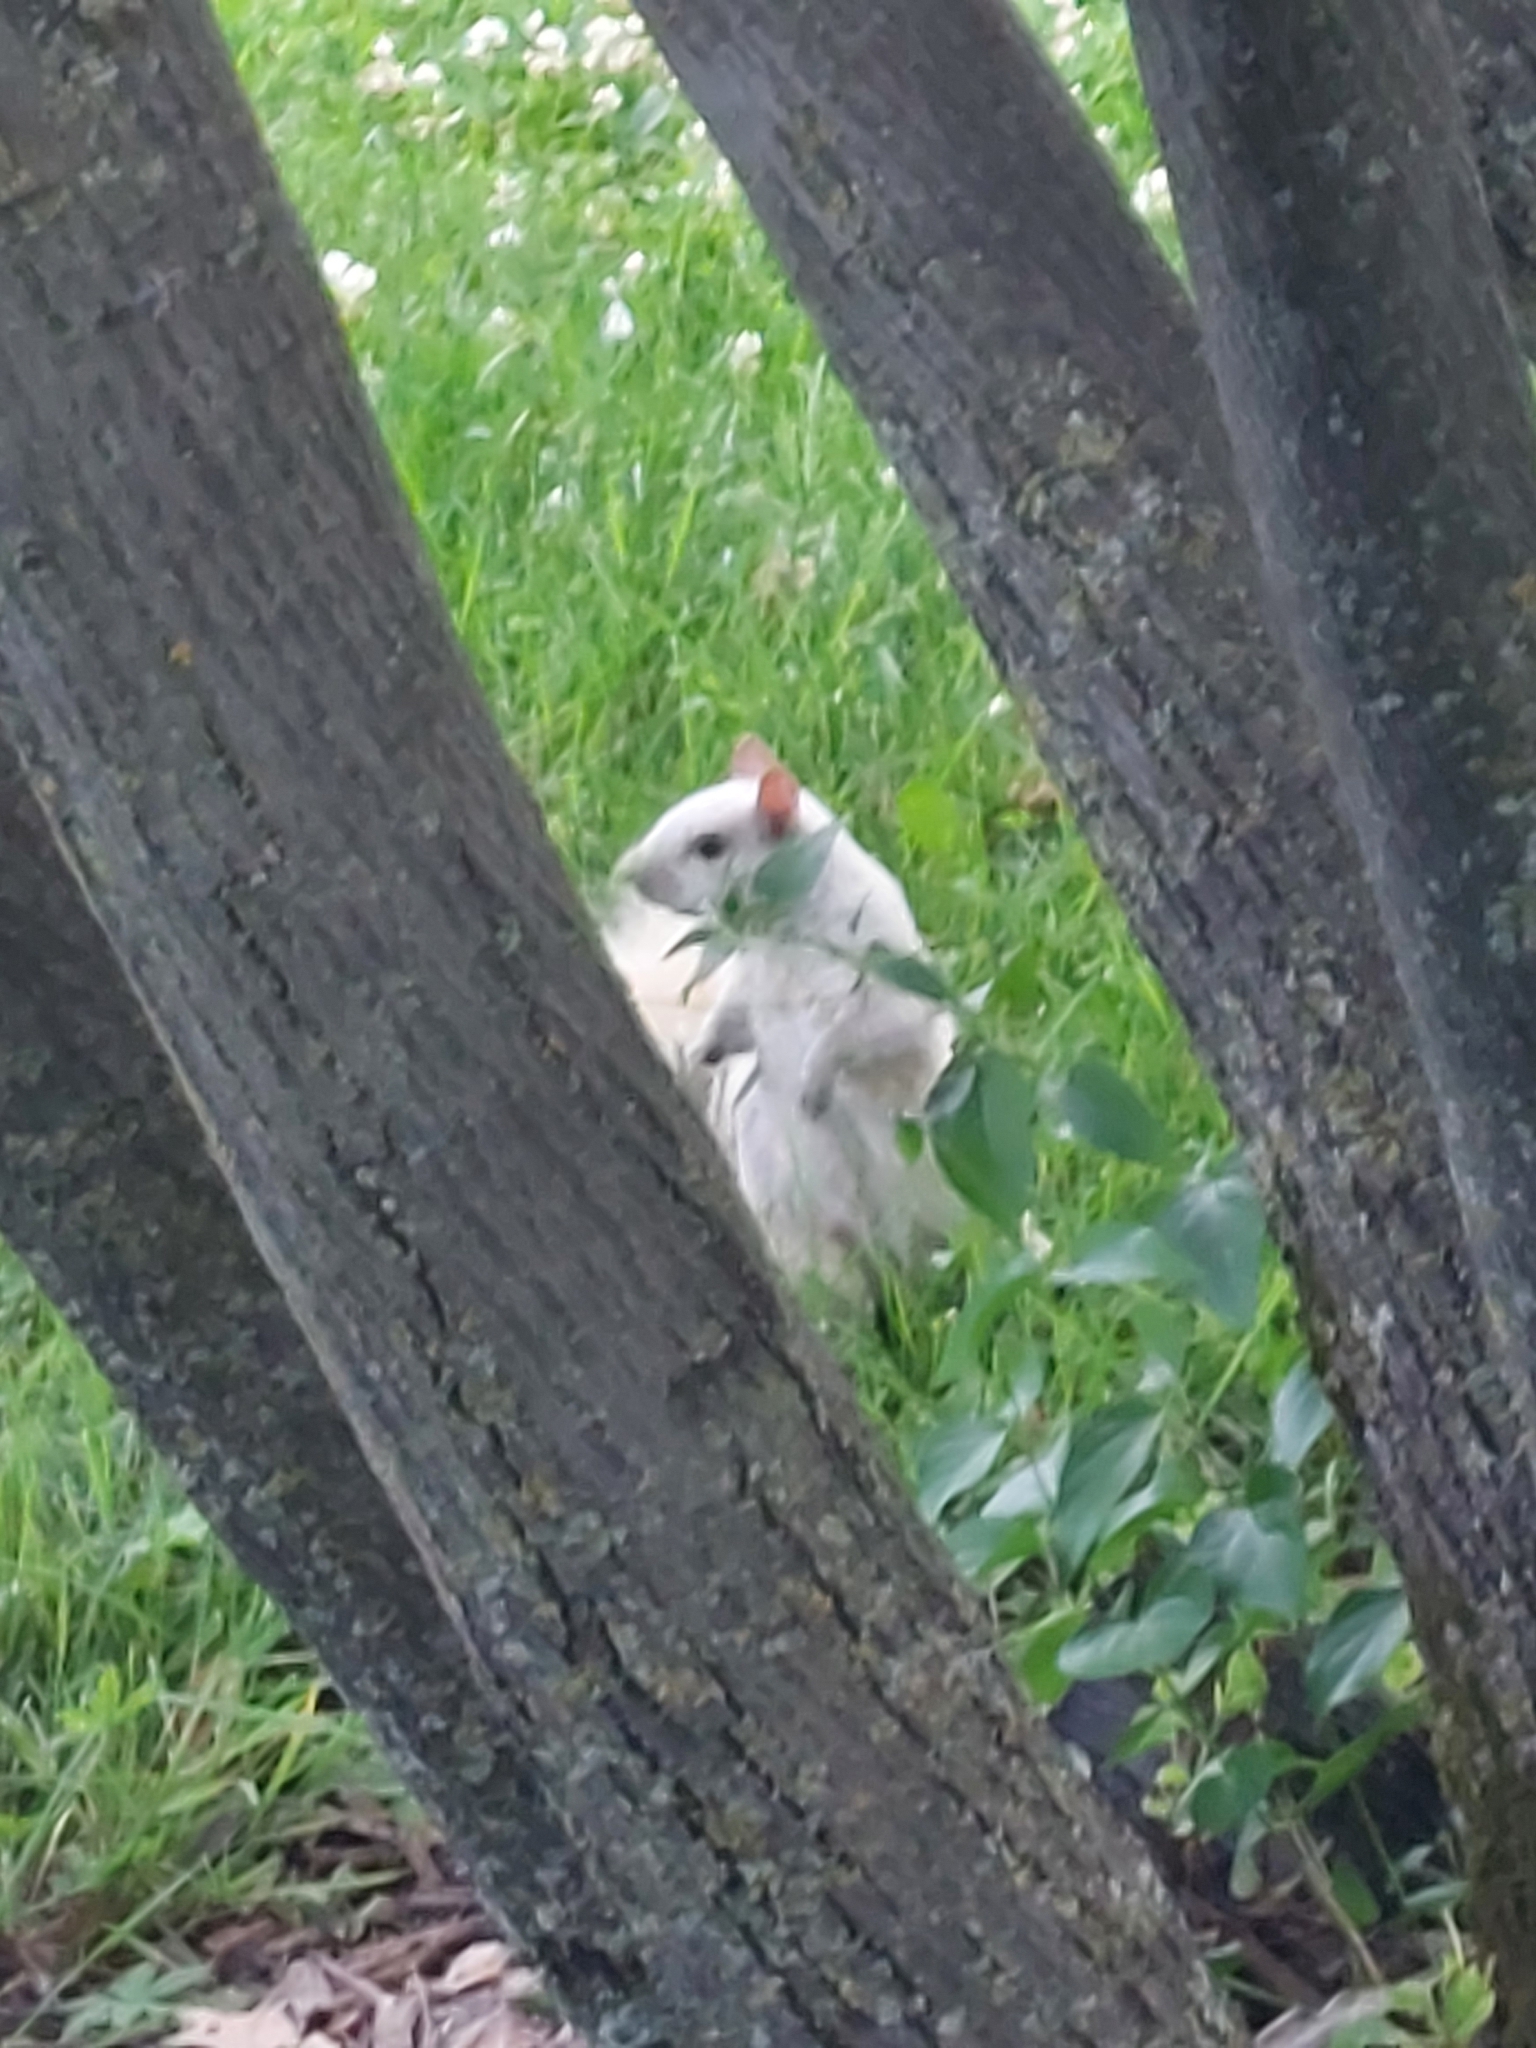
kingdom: Animalia
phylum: Chordata
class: Mammalia
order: Rodentia
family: Sciuridae
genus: Sciurus
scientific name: Sciurus carolinensis
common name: Eastern gray squirrel
